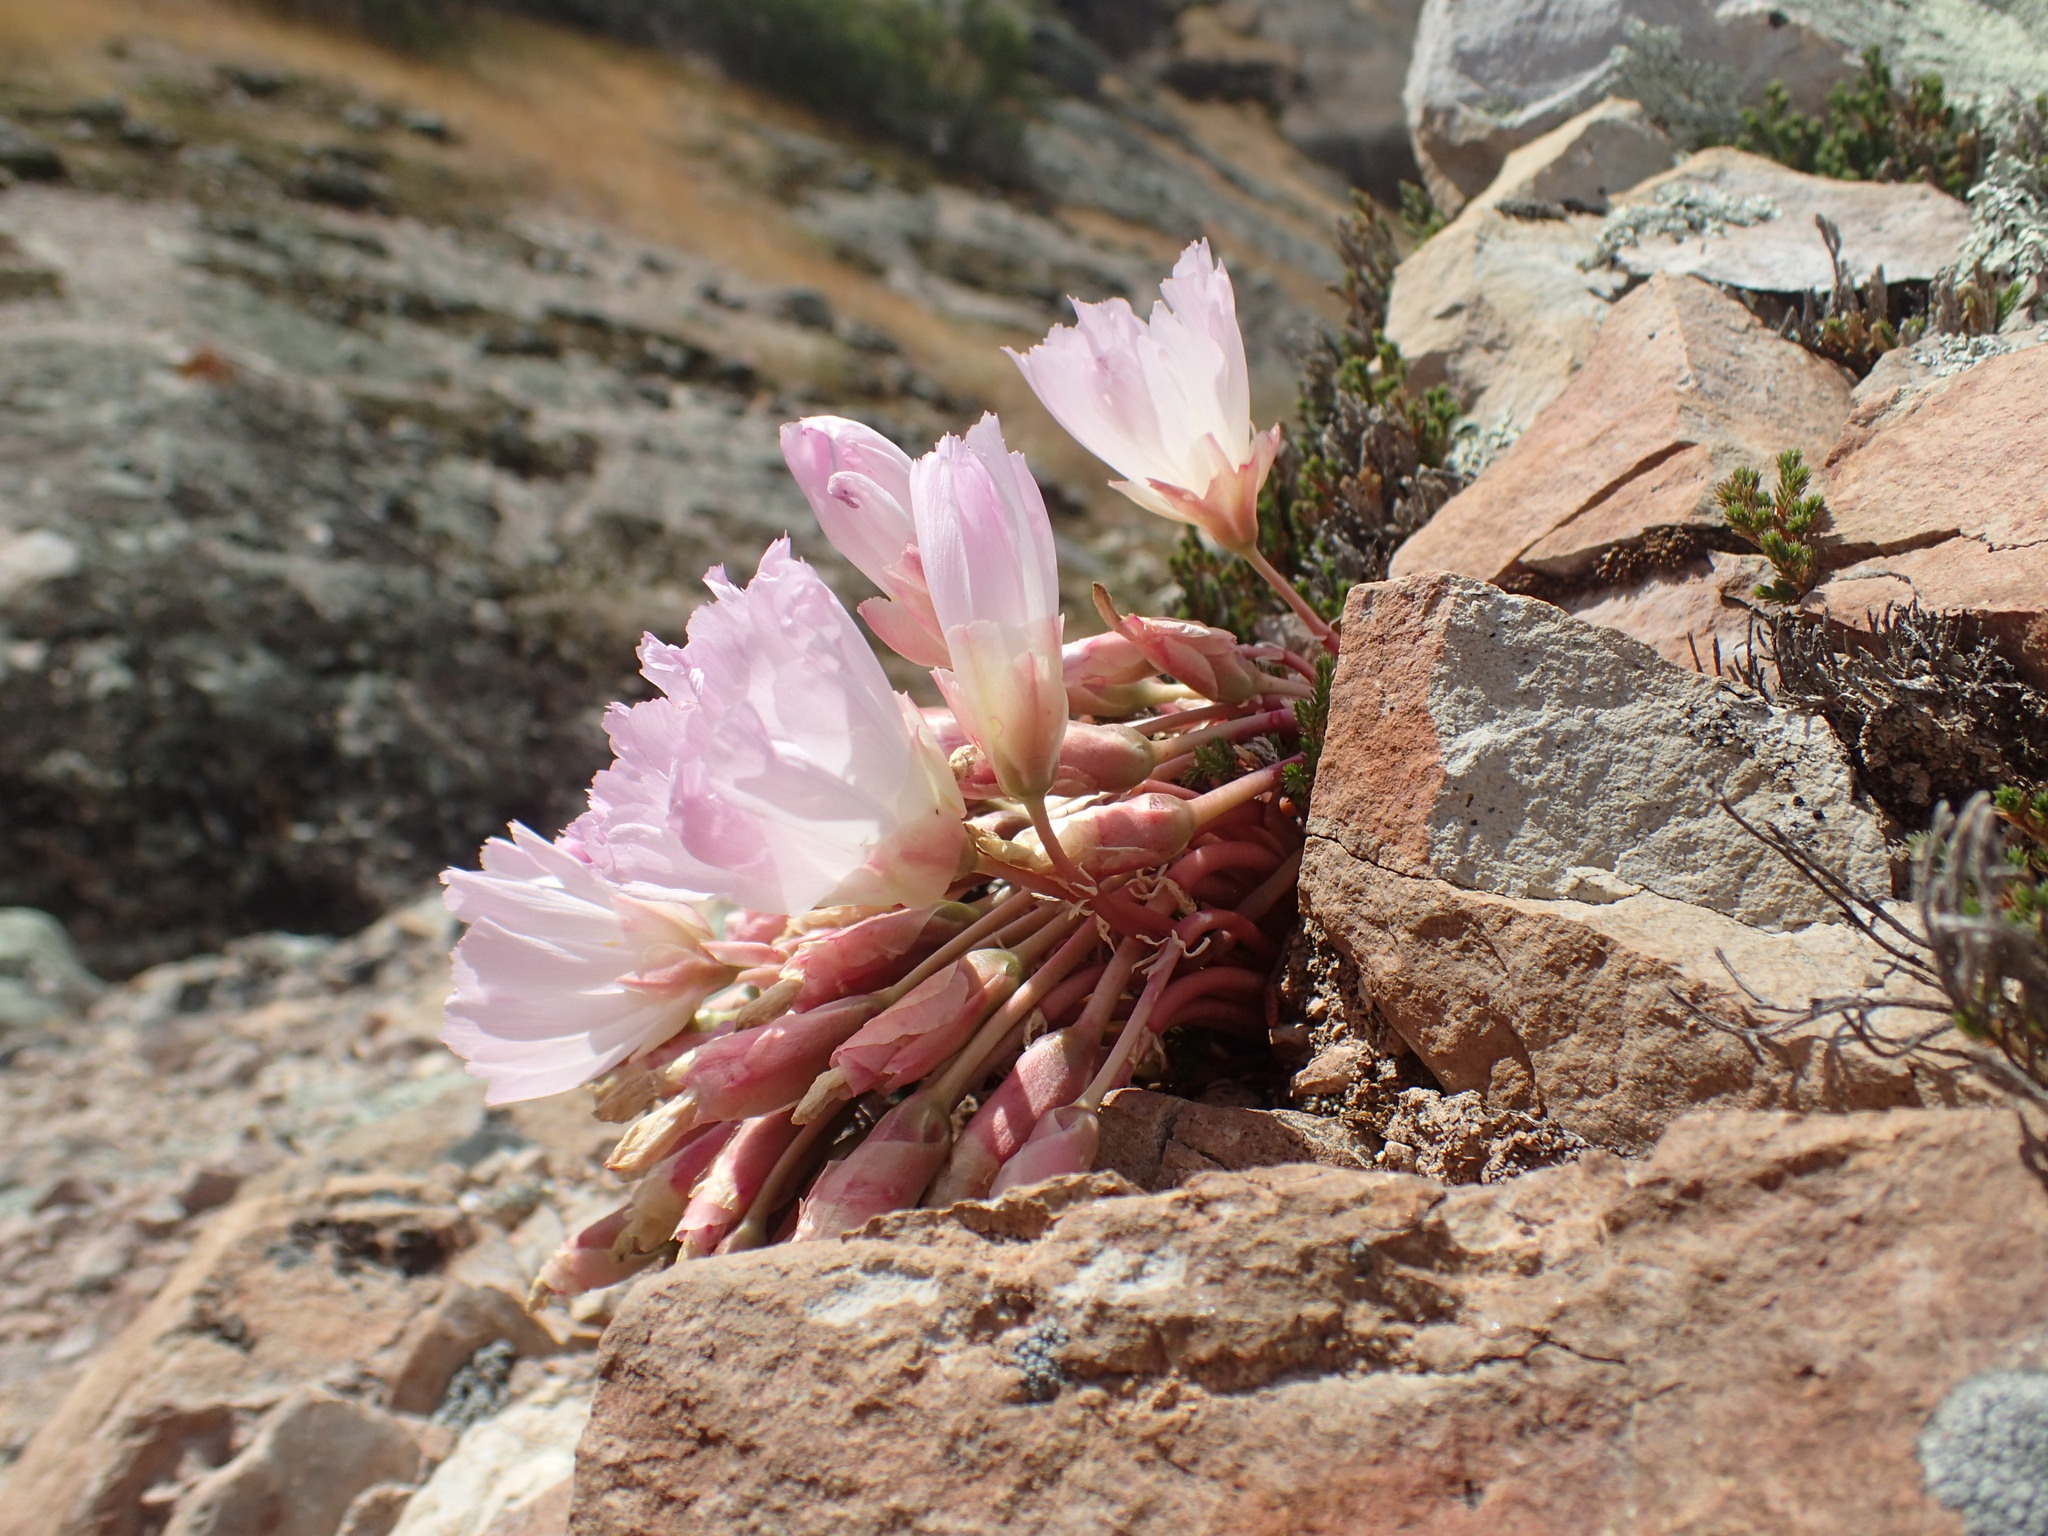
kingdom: Plantae
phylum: Tracheophyta
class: Magnoliopsida
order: Caryophyllales
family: Montiaceae
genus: Lewisia
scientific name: Lewisia rediviva
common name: Bitter-root
